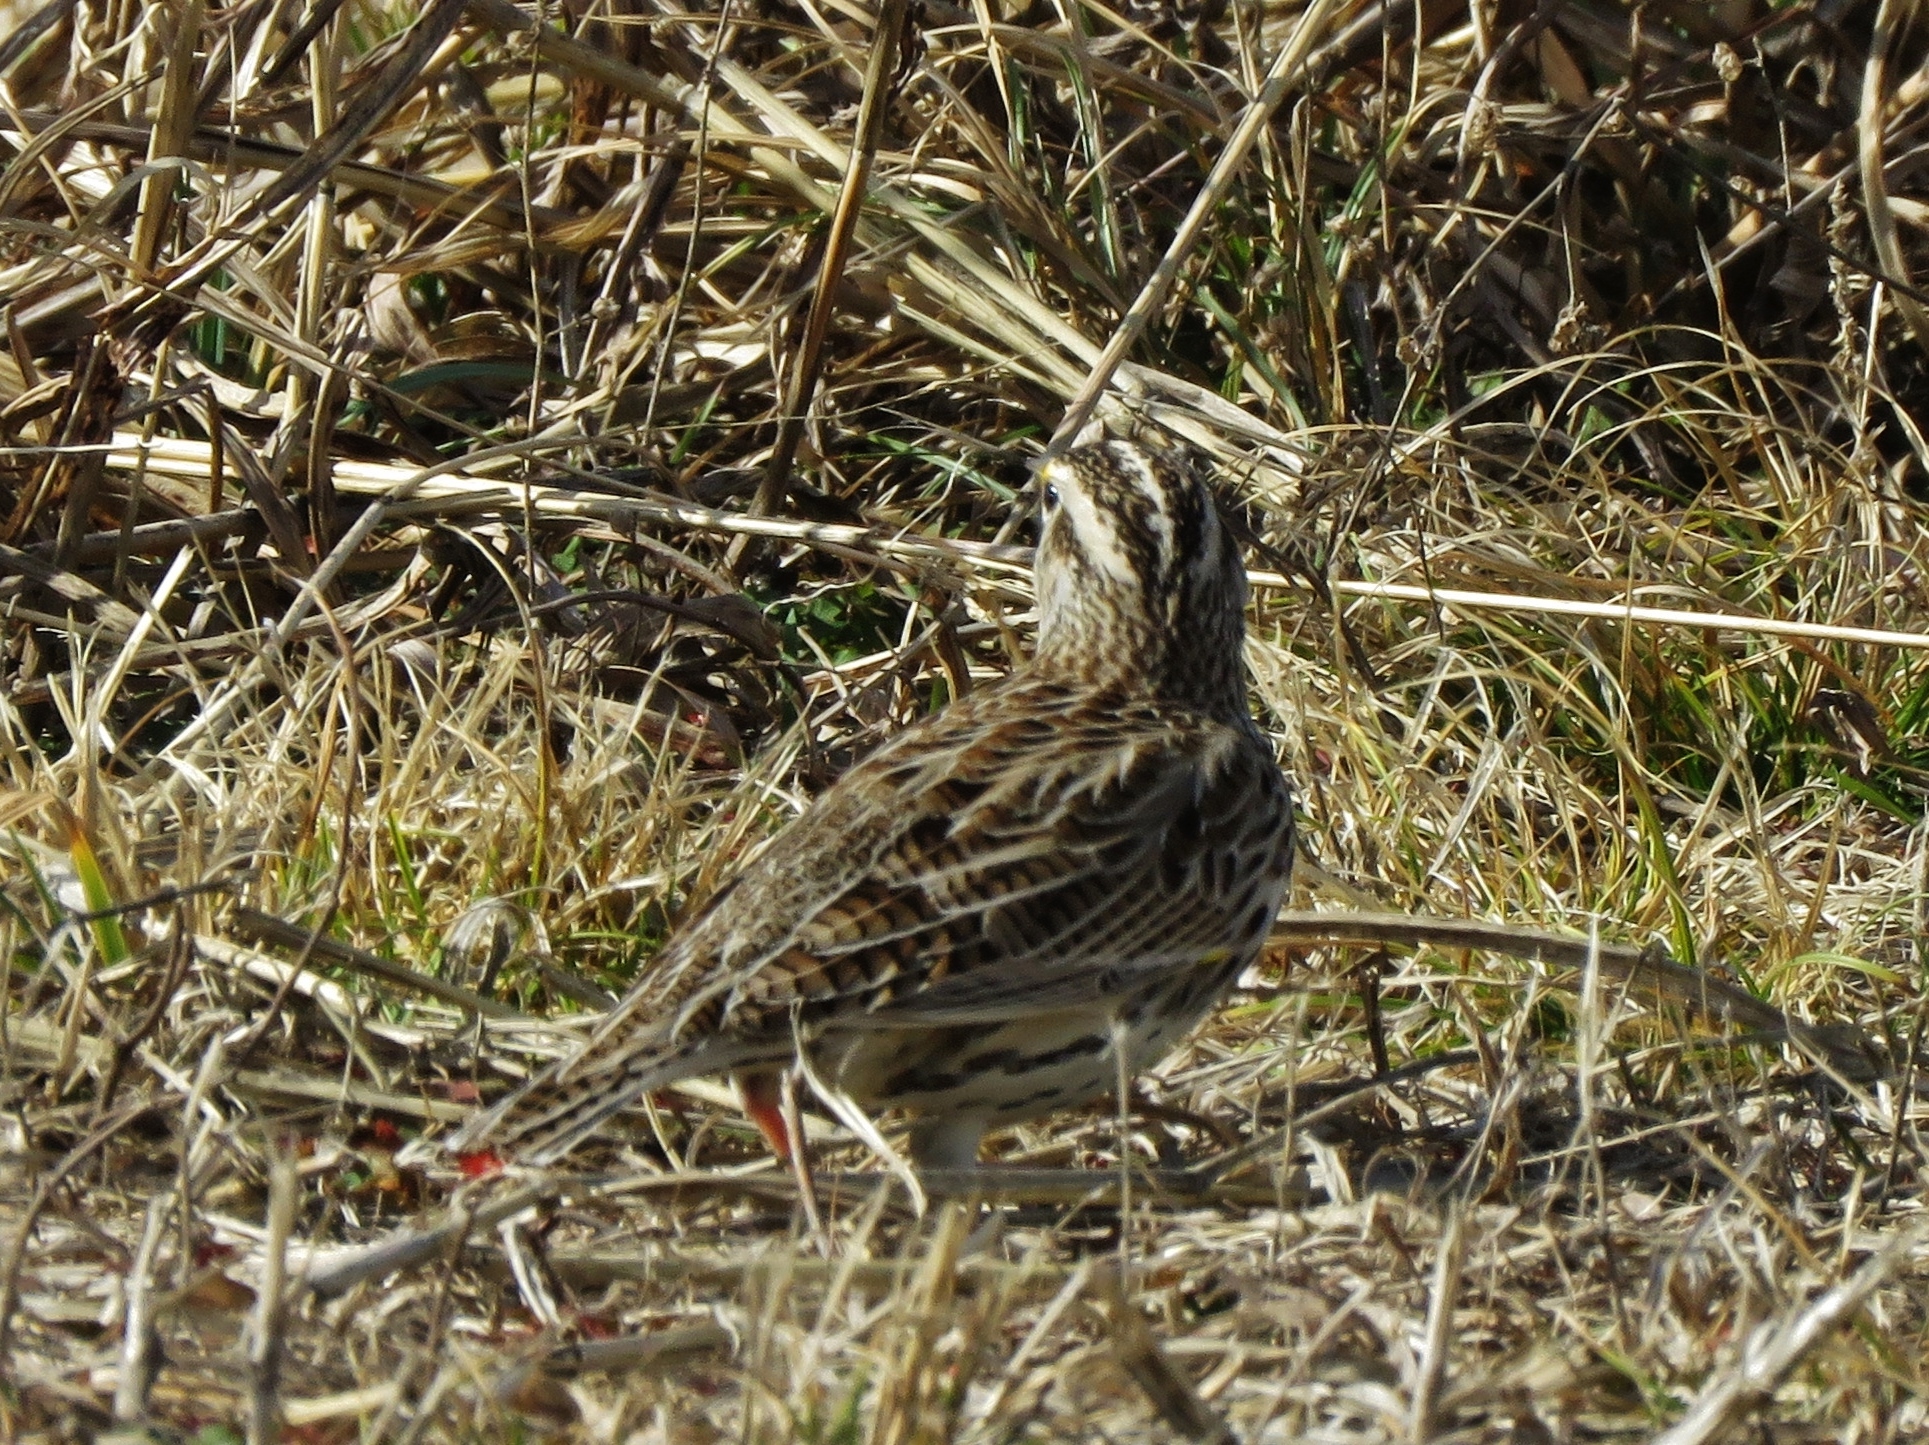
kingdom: Animalia
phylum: Chordata
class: Aves
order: Passeriformes
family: Icteridae
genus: Sturnella
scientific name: Sturnella neglecta
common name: Western meadowlark
